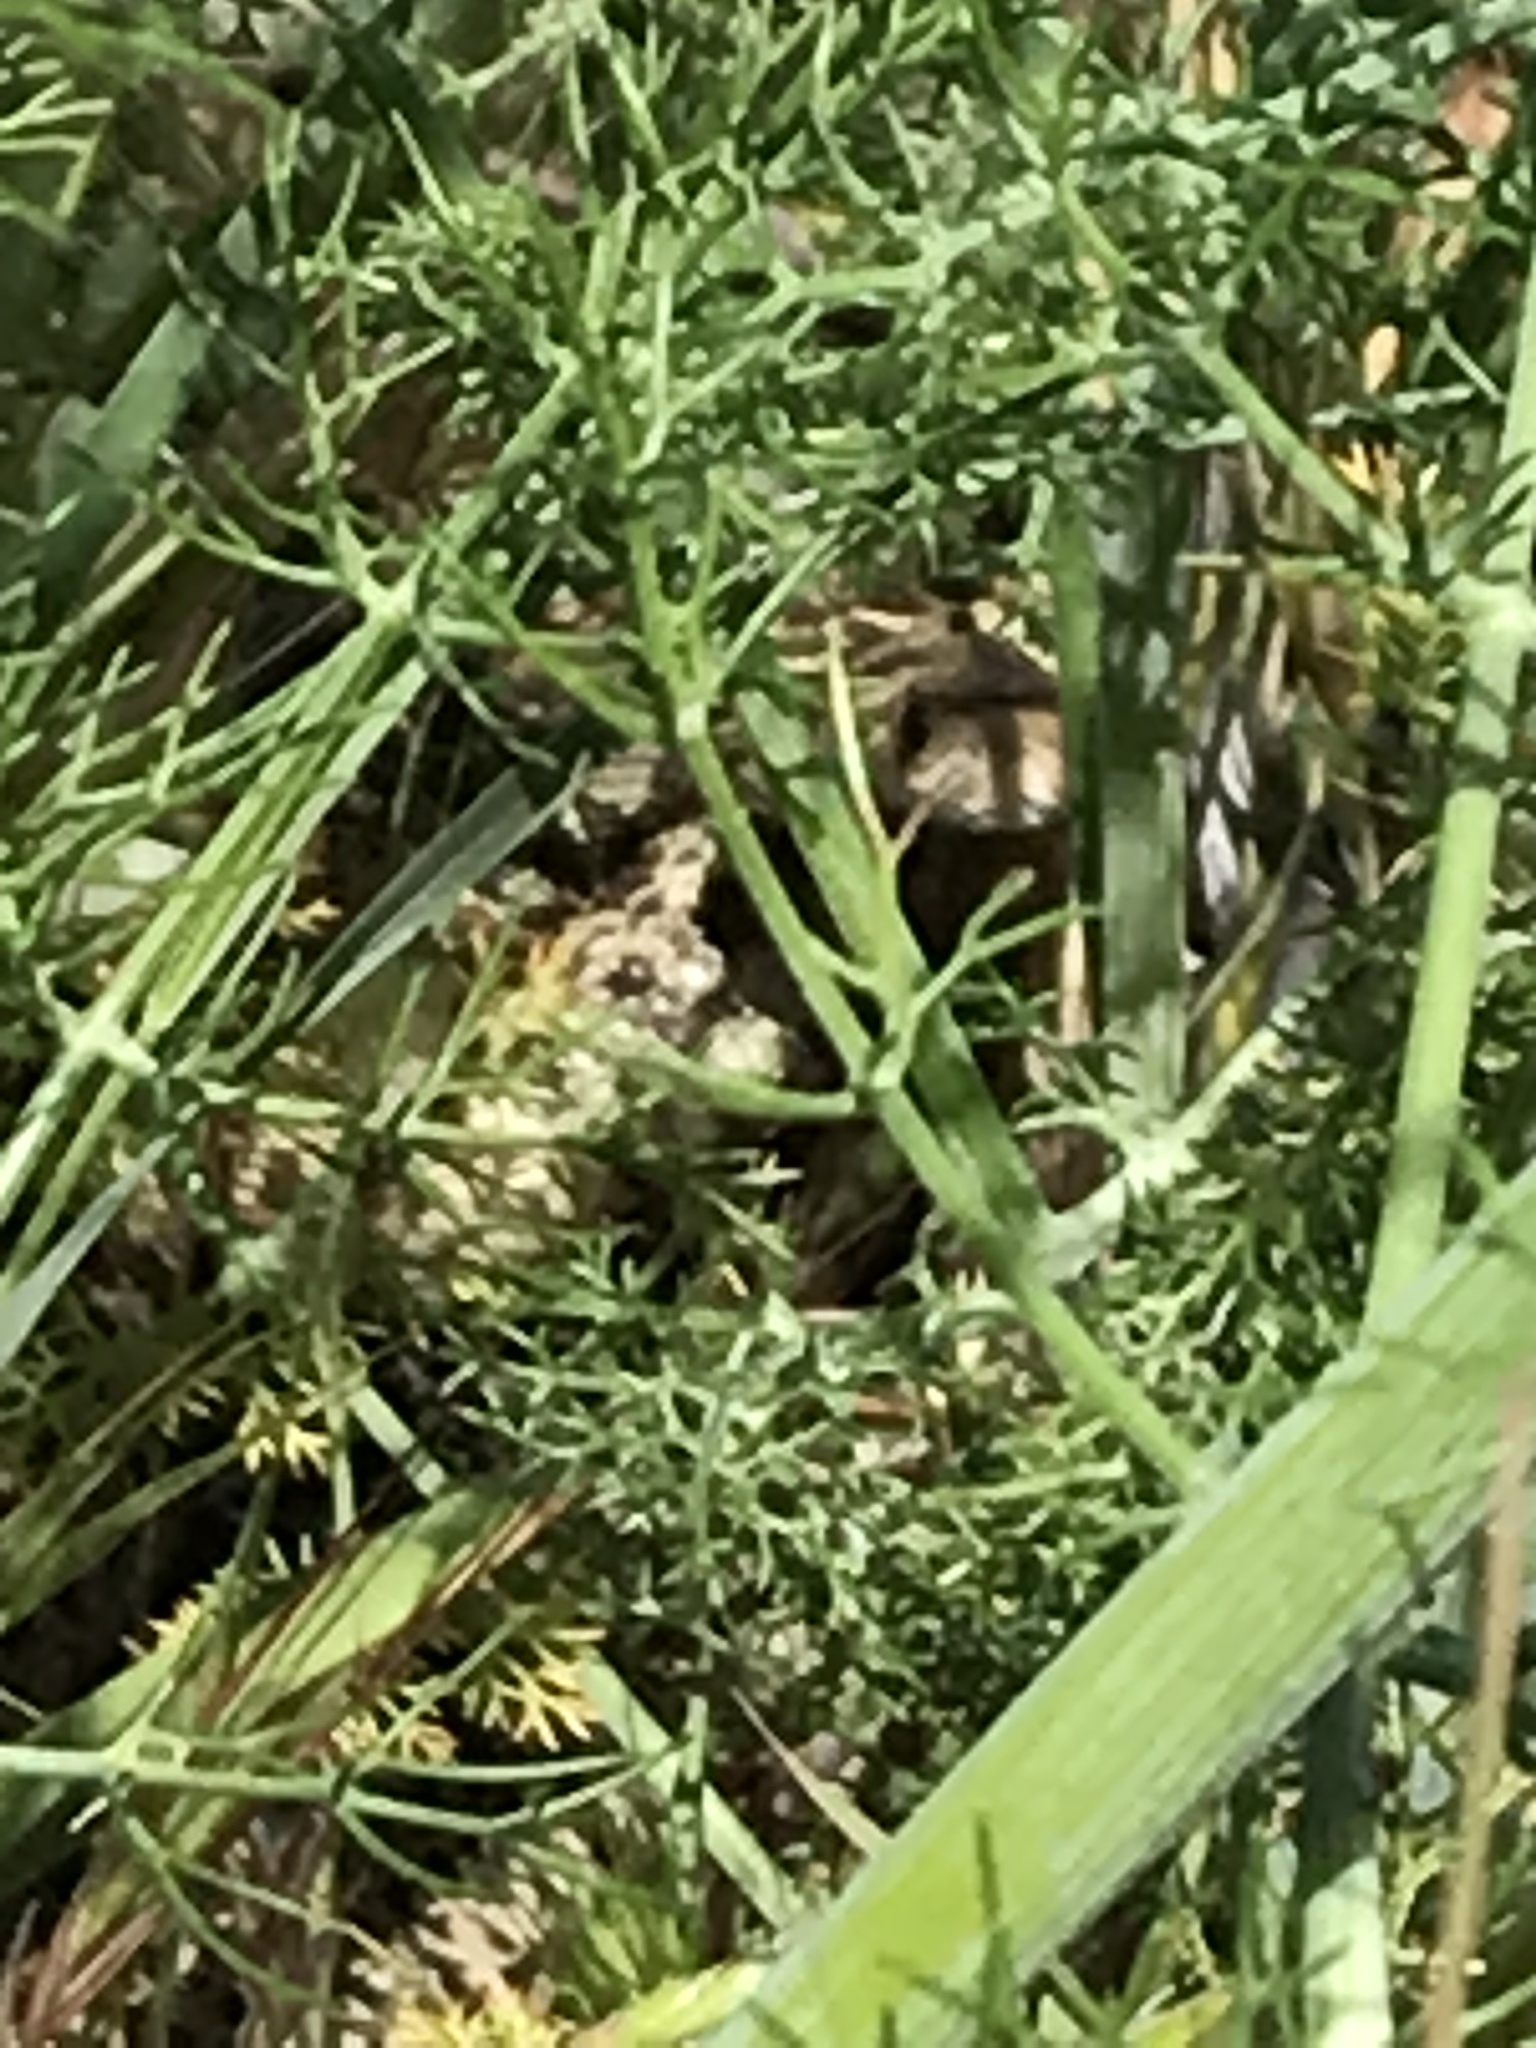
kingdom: Animalia
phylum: Chordata
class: Squamata
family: Colubridae
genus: Pituophis
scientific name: Pituophis catenifer
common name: Gopher snake
